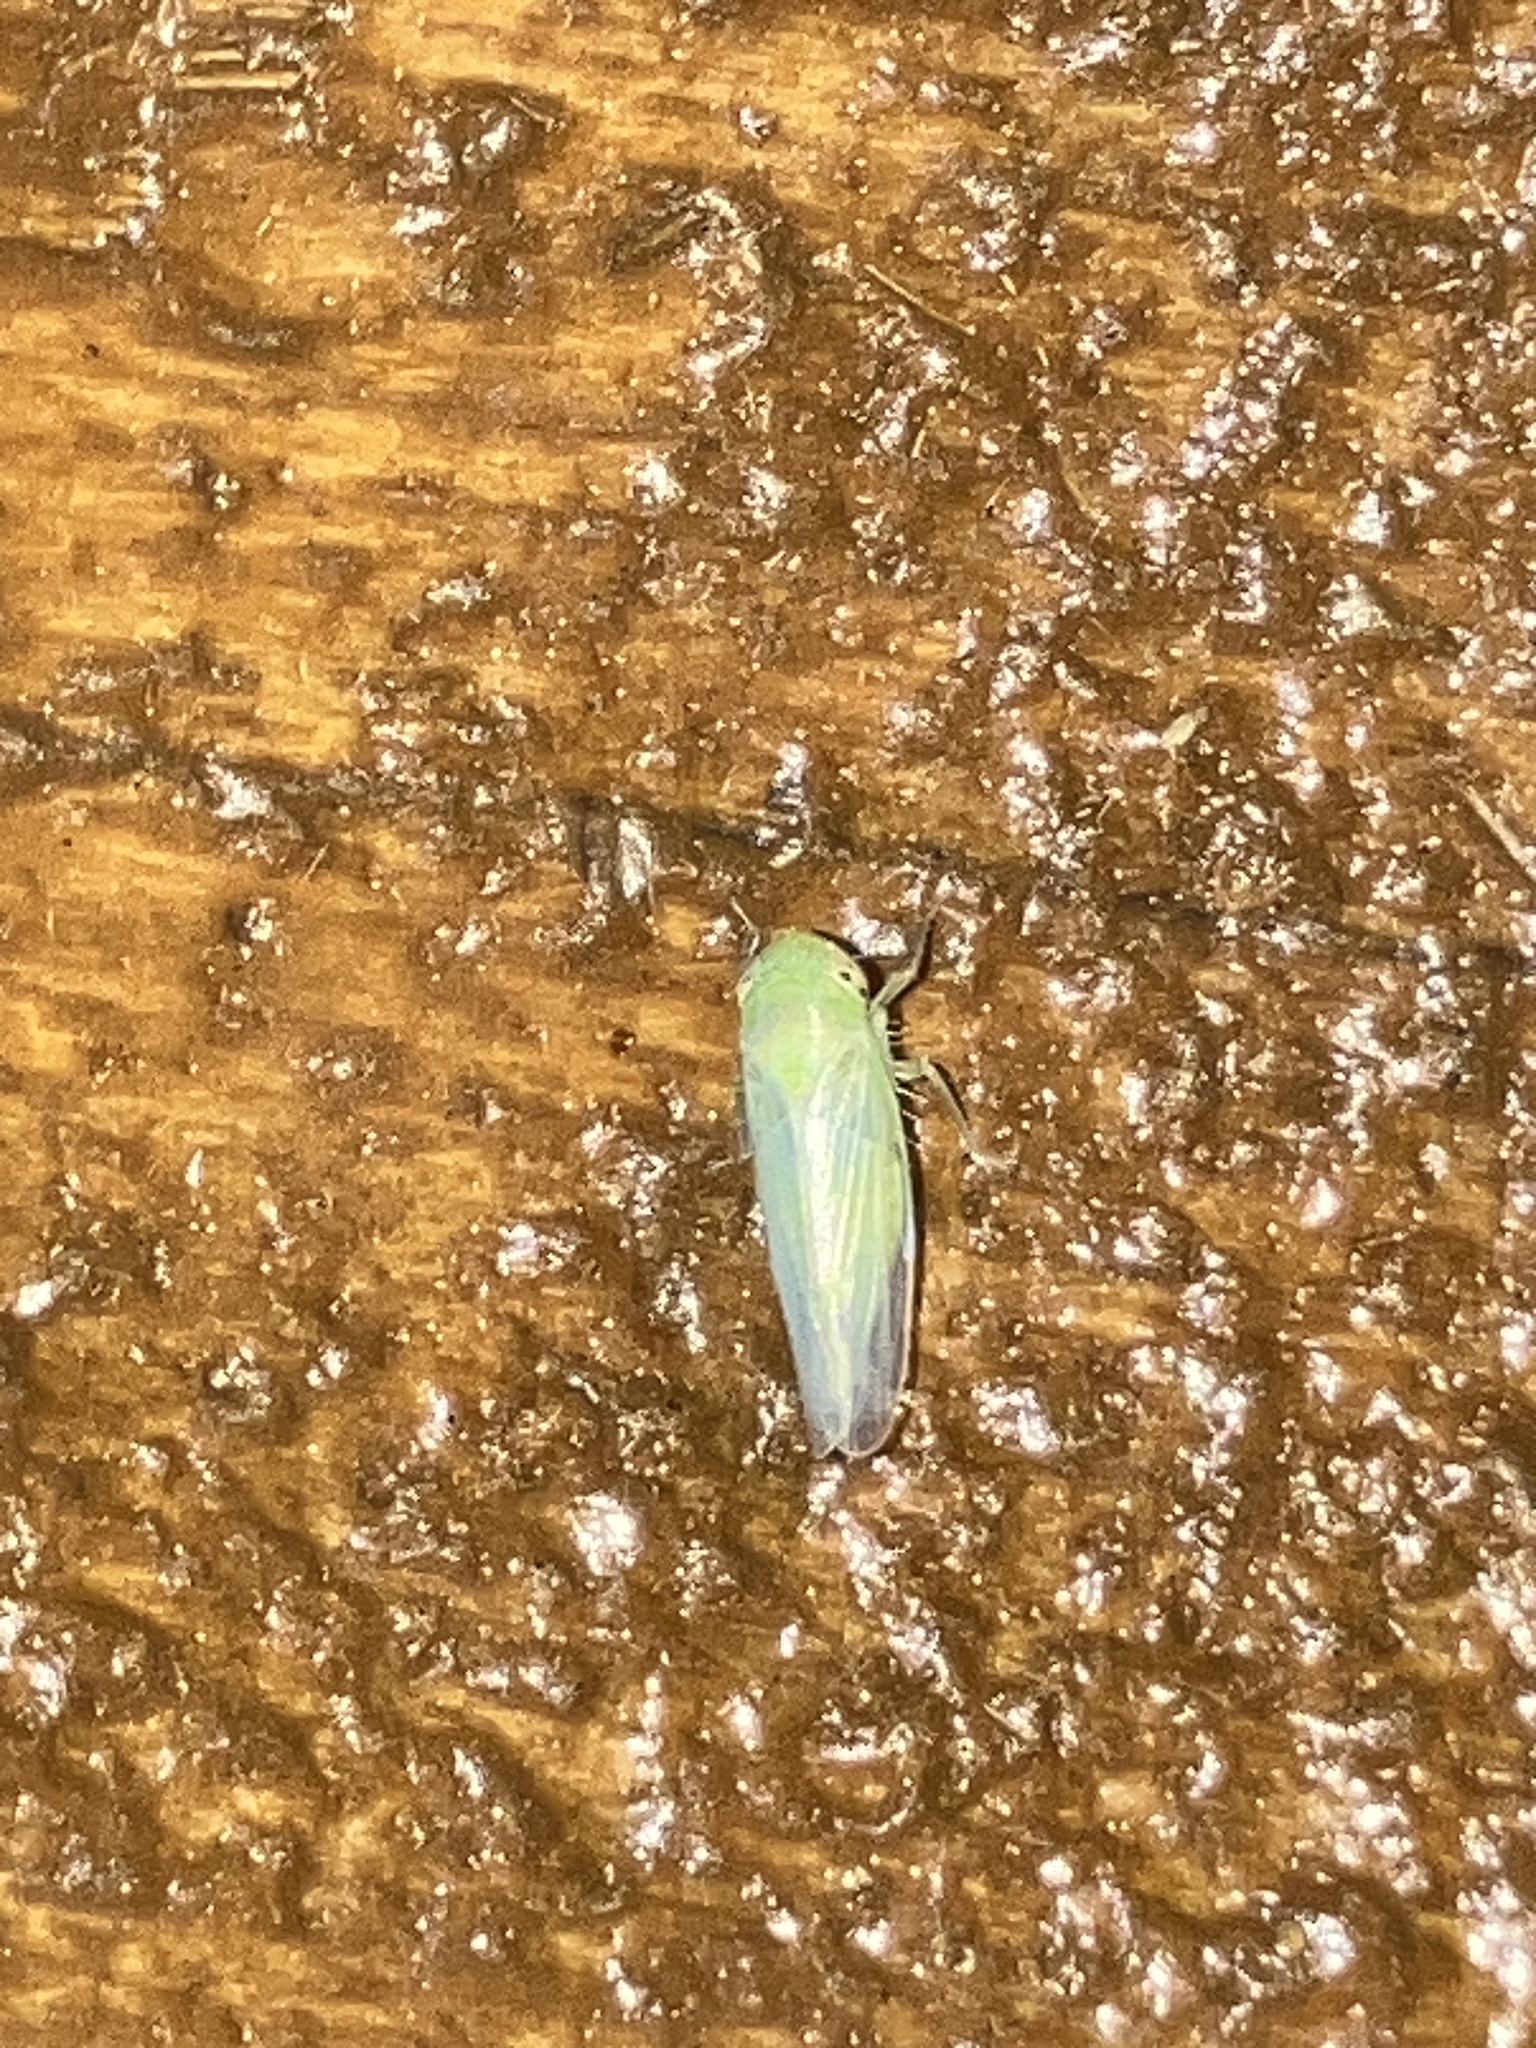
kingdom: Animalia
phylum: Arthropoda
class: Insecta
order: Hemiptera
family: Cicadellidae
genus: Chlorotettix
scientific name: Chlorotettix
